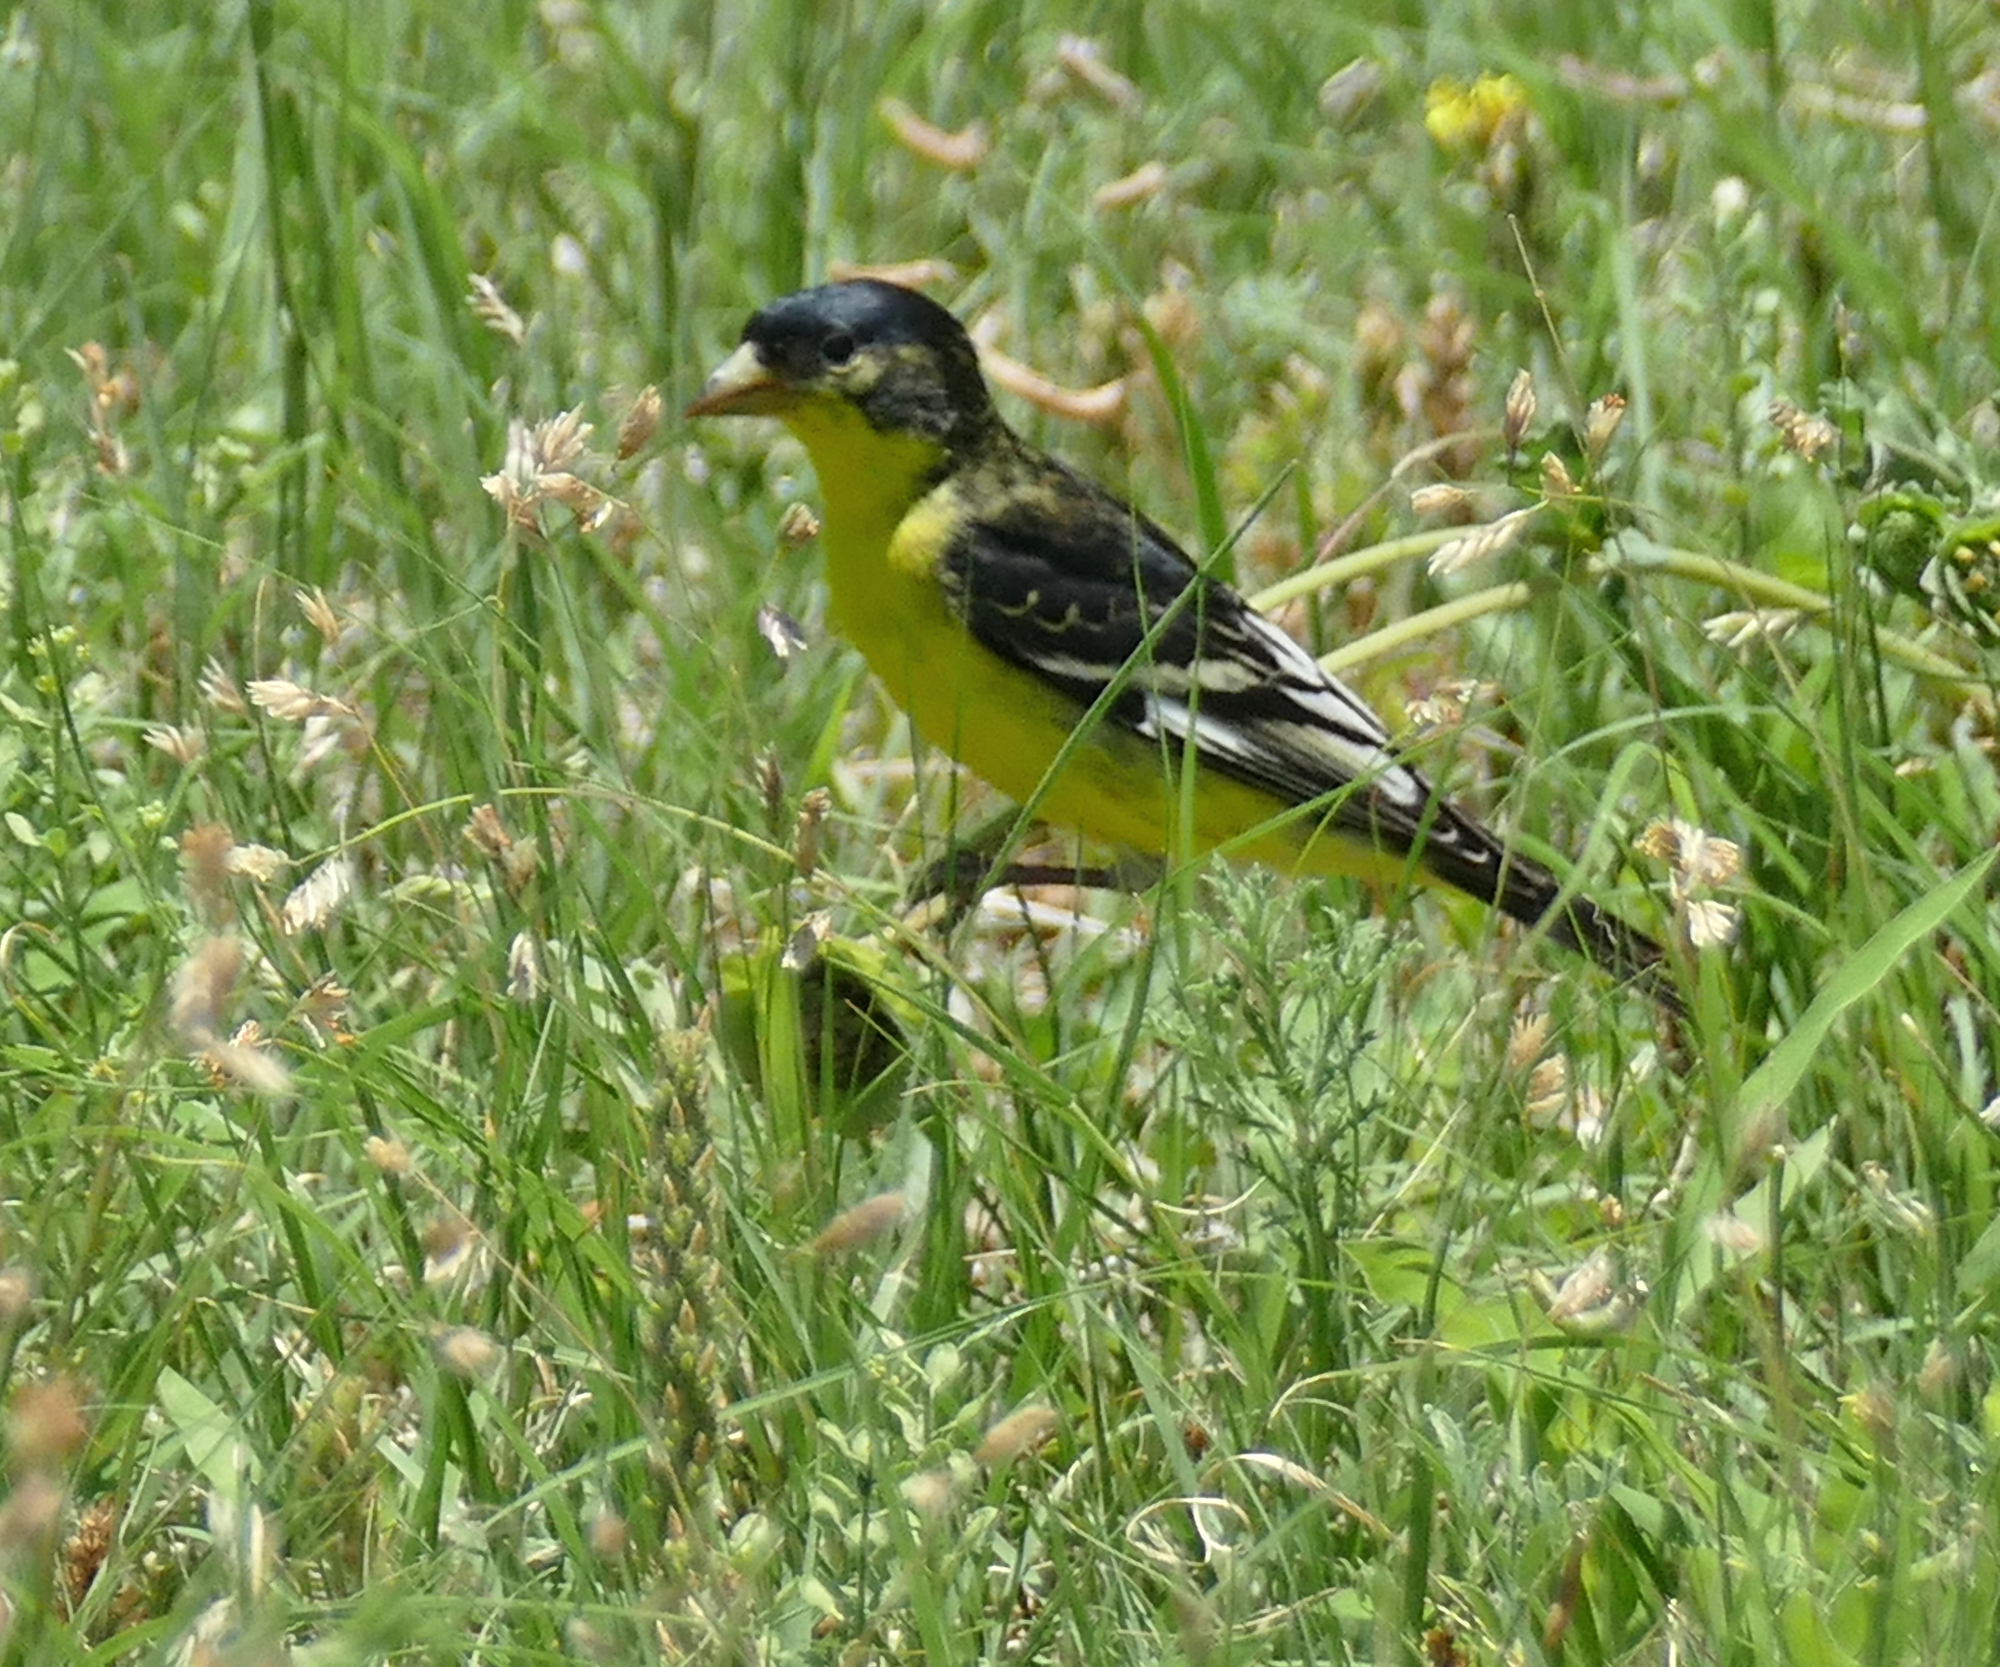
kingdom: Animalia
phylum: Chordata
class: Aves
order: Passeriformes
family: Fringillidae
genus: Spinus
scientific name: Spinus psaltria
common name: Lesser goldfinch
